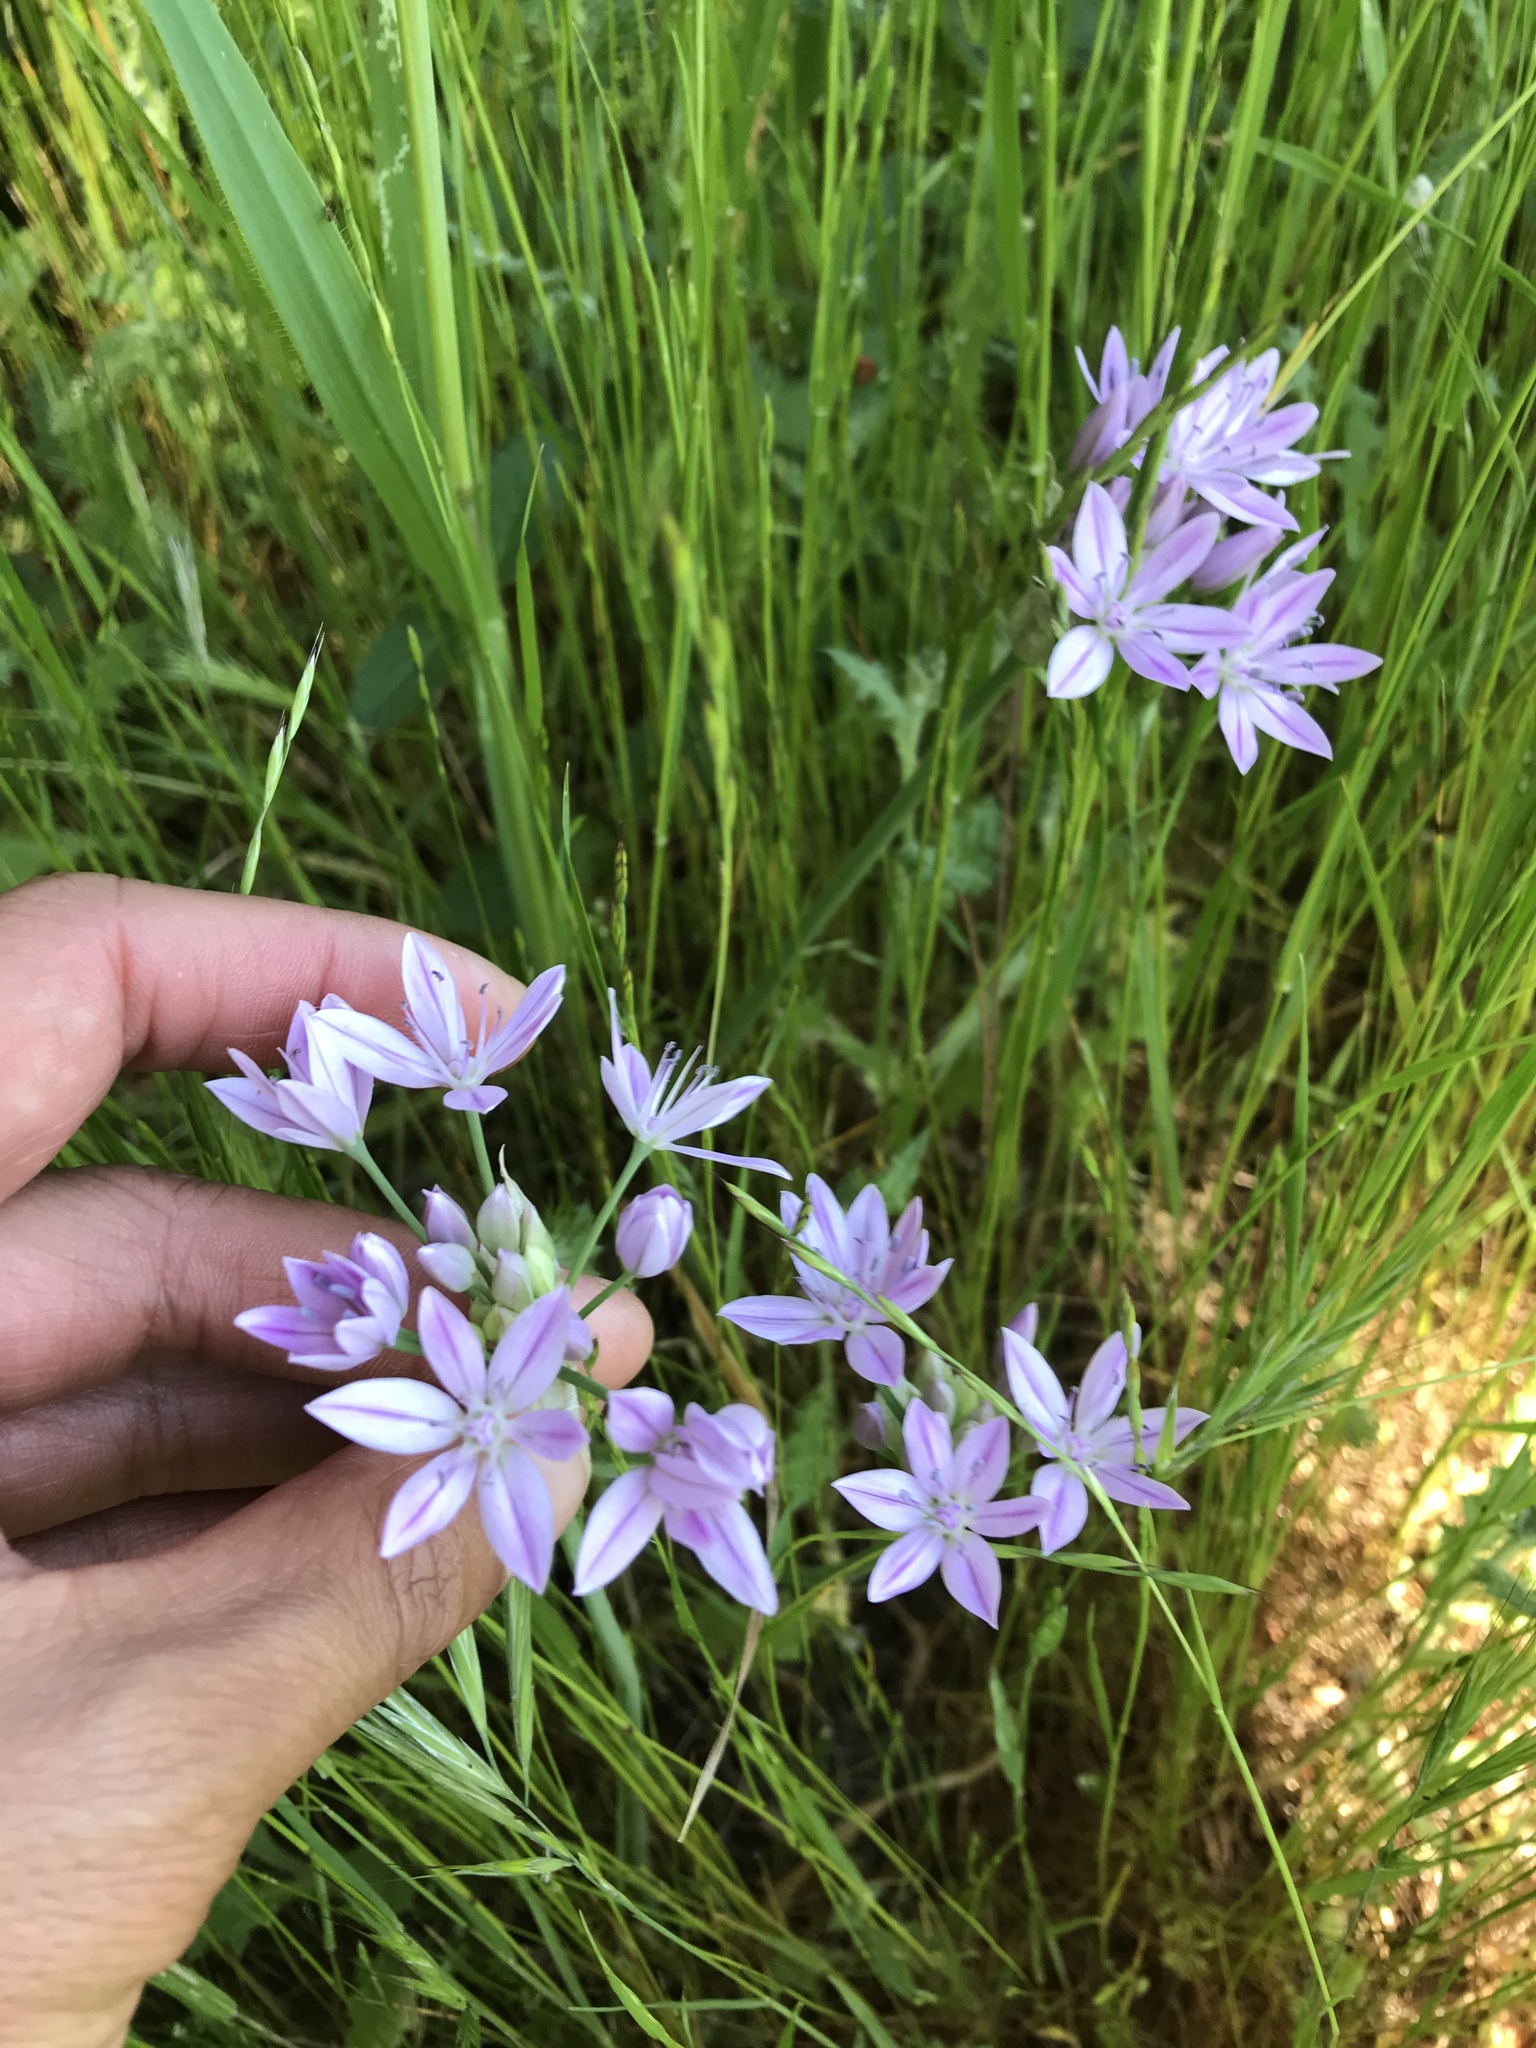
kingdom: Plantae
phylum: Tracheophyta
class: Liliopsida
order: Asparagales
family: Amaryllidaceae
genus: Allium
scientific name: Allium unifolium
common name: American garlic
